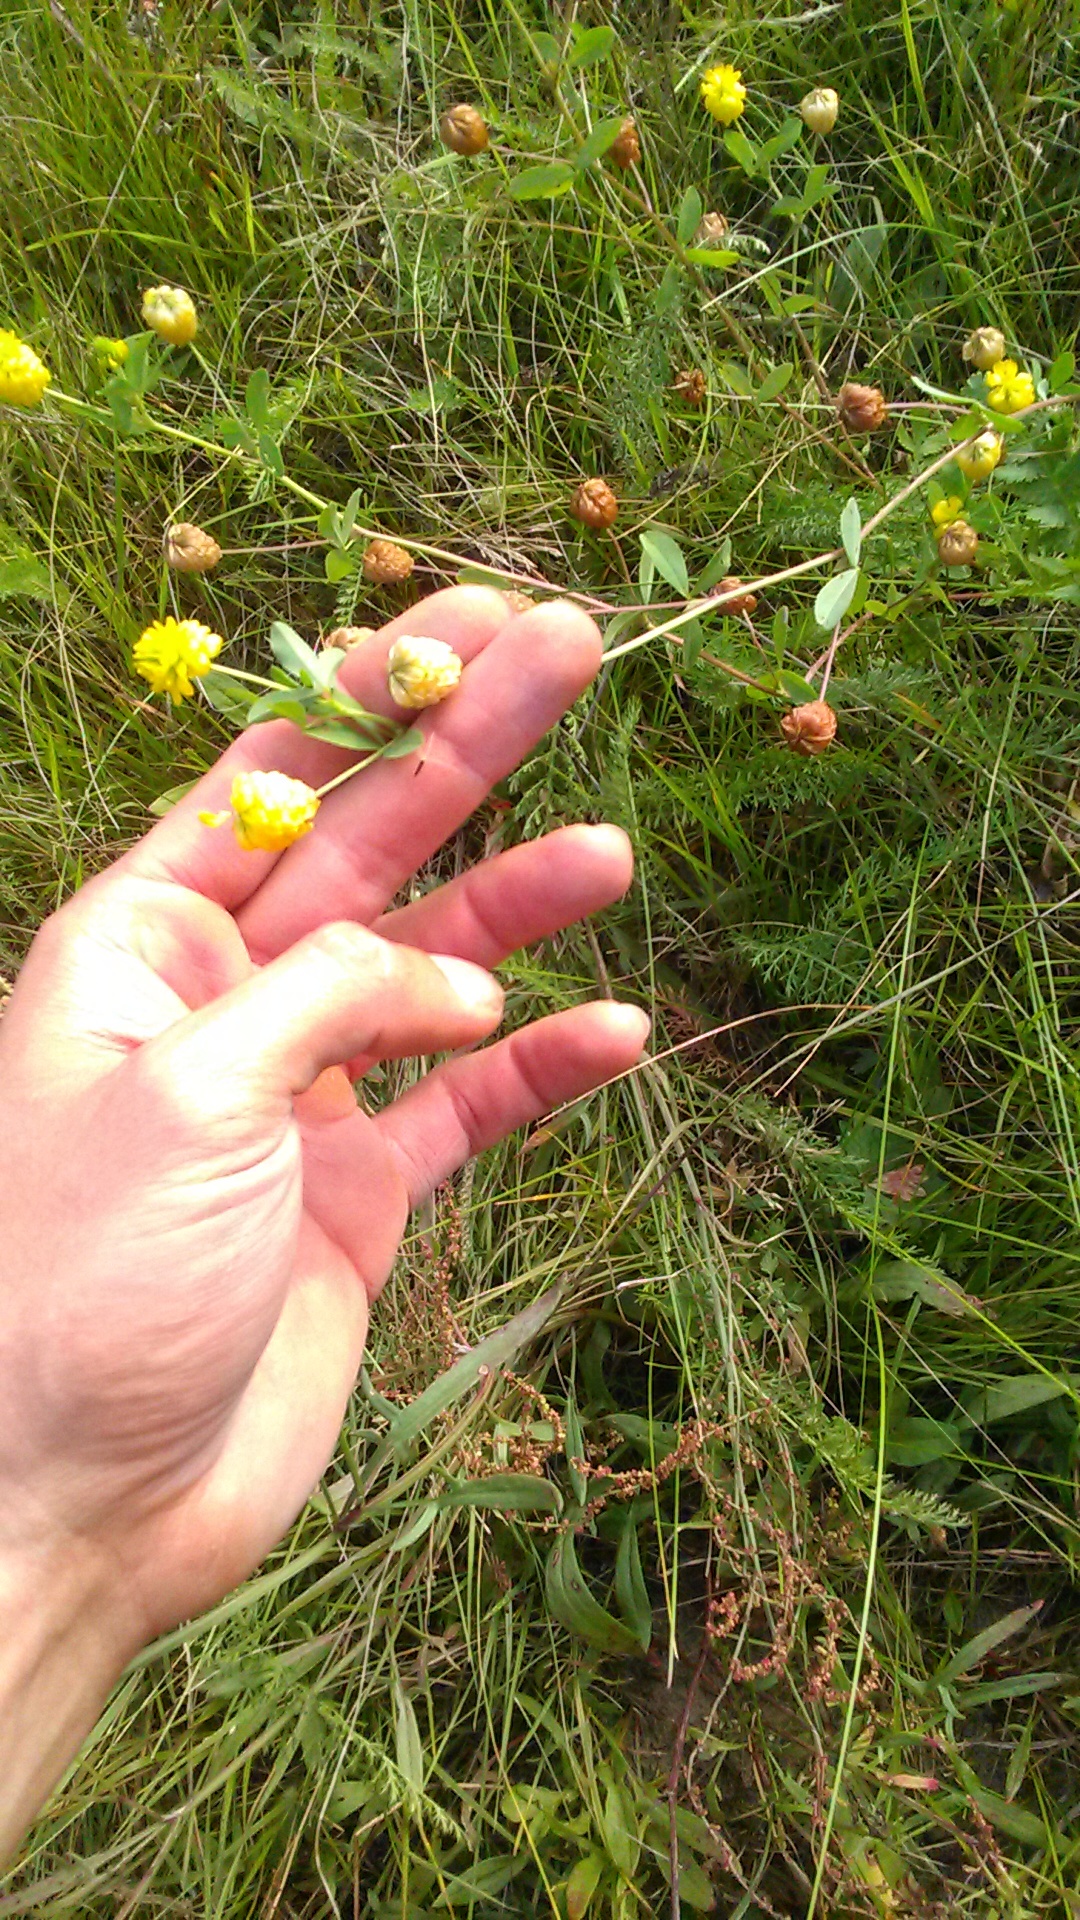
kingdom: Plantae
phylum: Tracheophyta
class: Magnoliopsida
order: Fabales
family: Fabaceae
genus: Trifolium
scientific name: Trifolium aureum
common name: Golden clover
